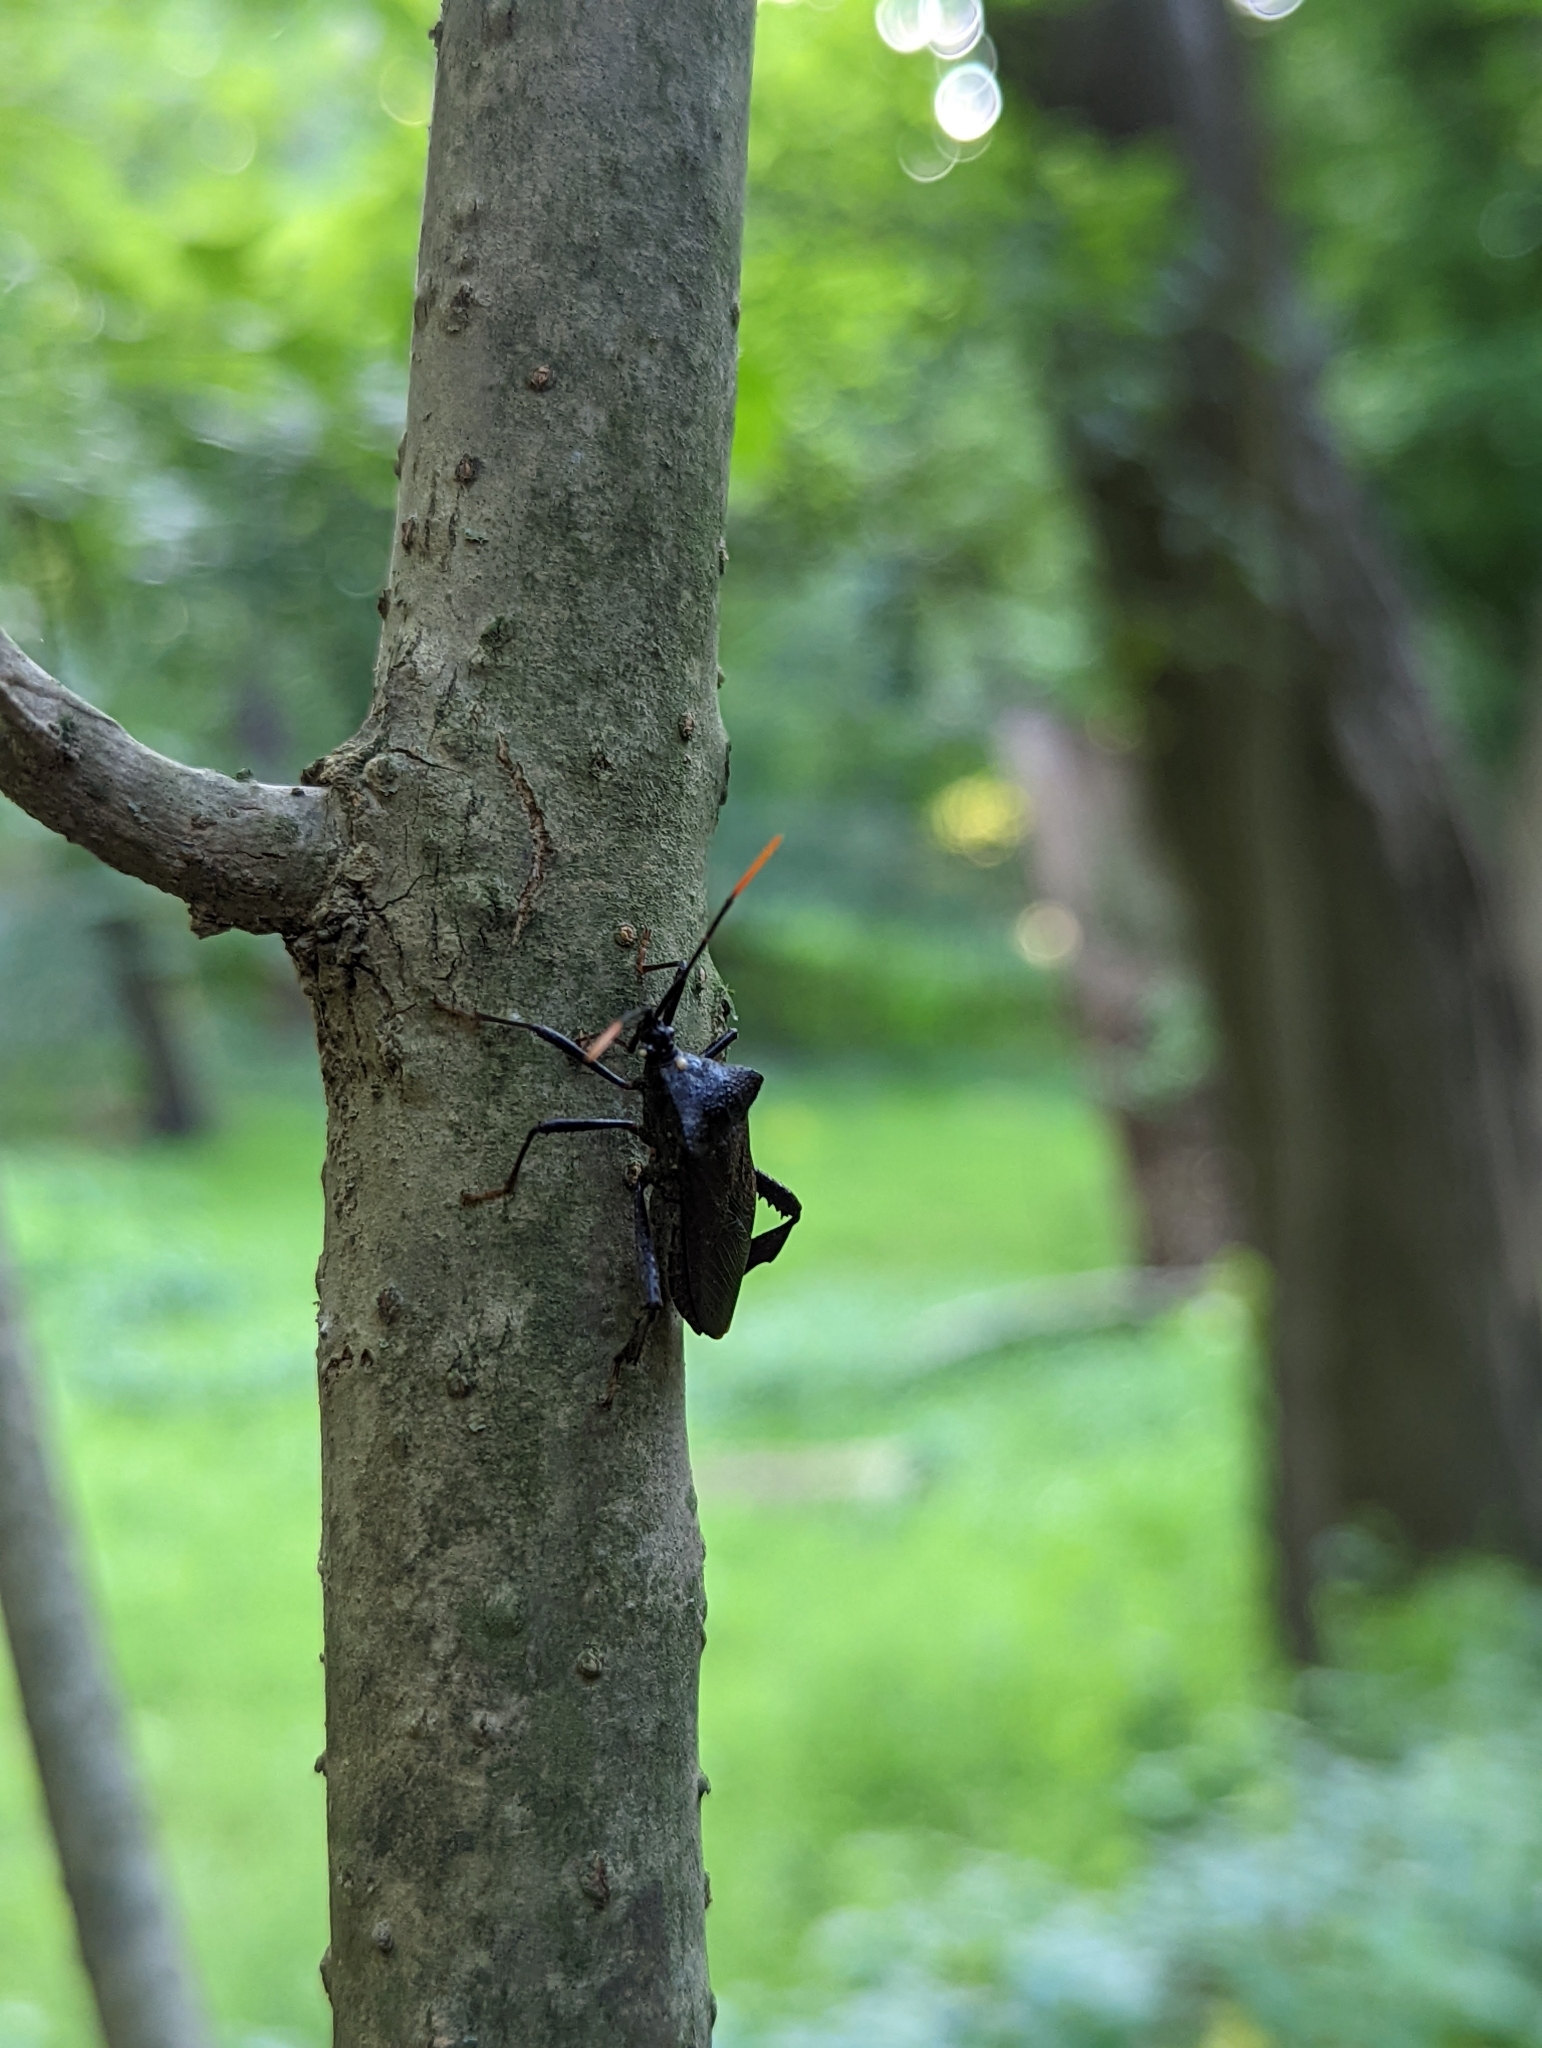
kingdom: Animalia
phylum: Arthropoda
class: Insecta
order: Hemiptera
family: Coreidae
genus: Acanthocephala
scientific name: Acanthocephala terminalis
